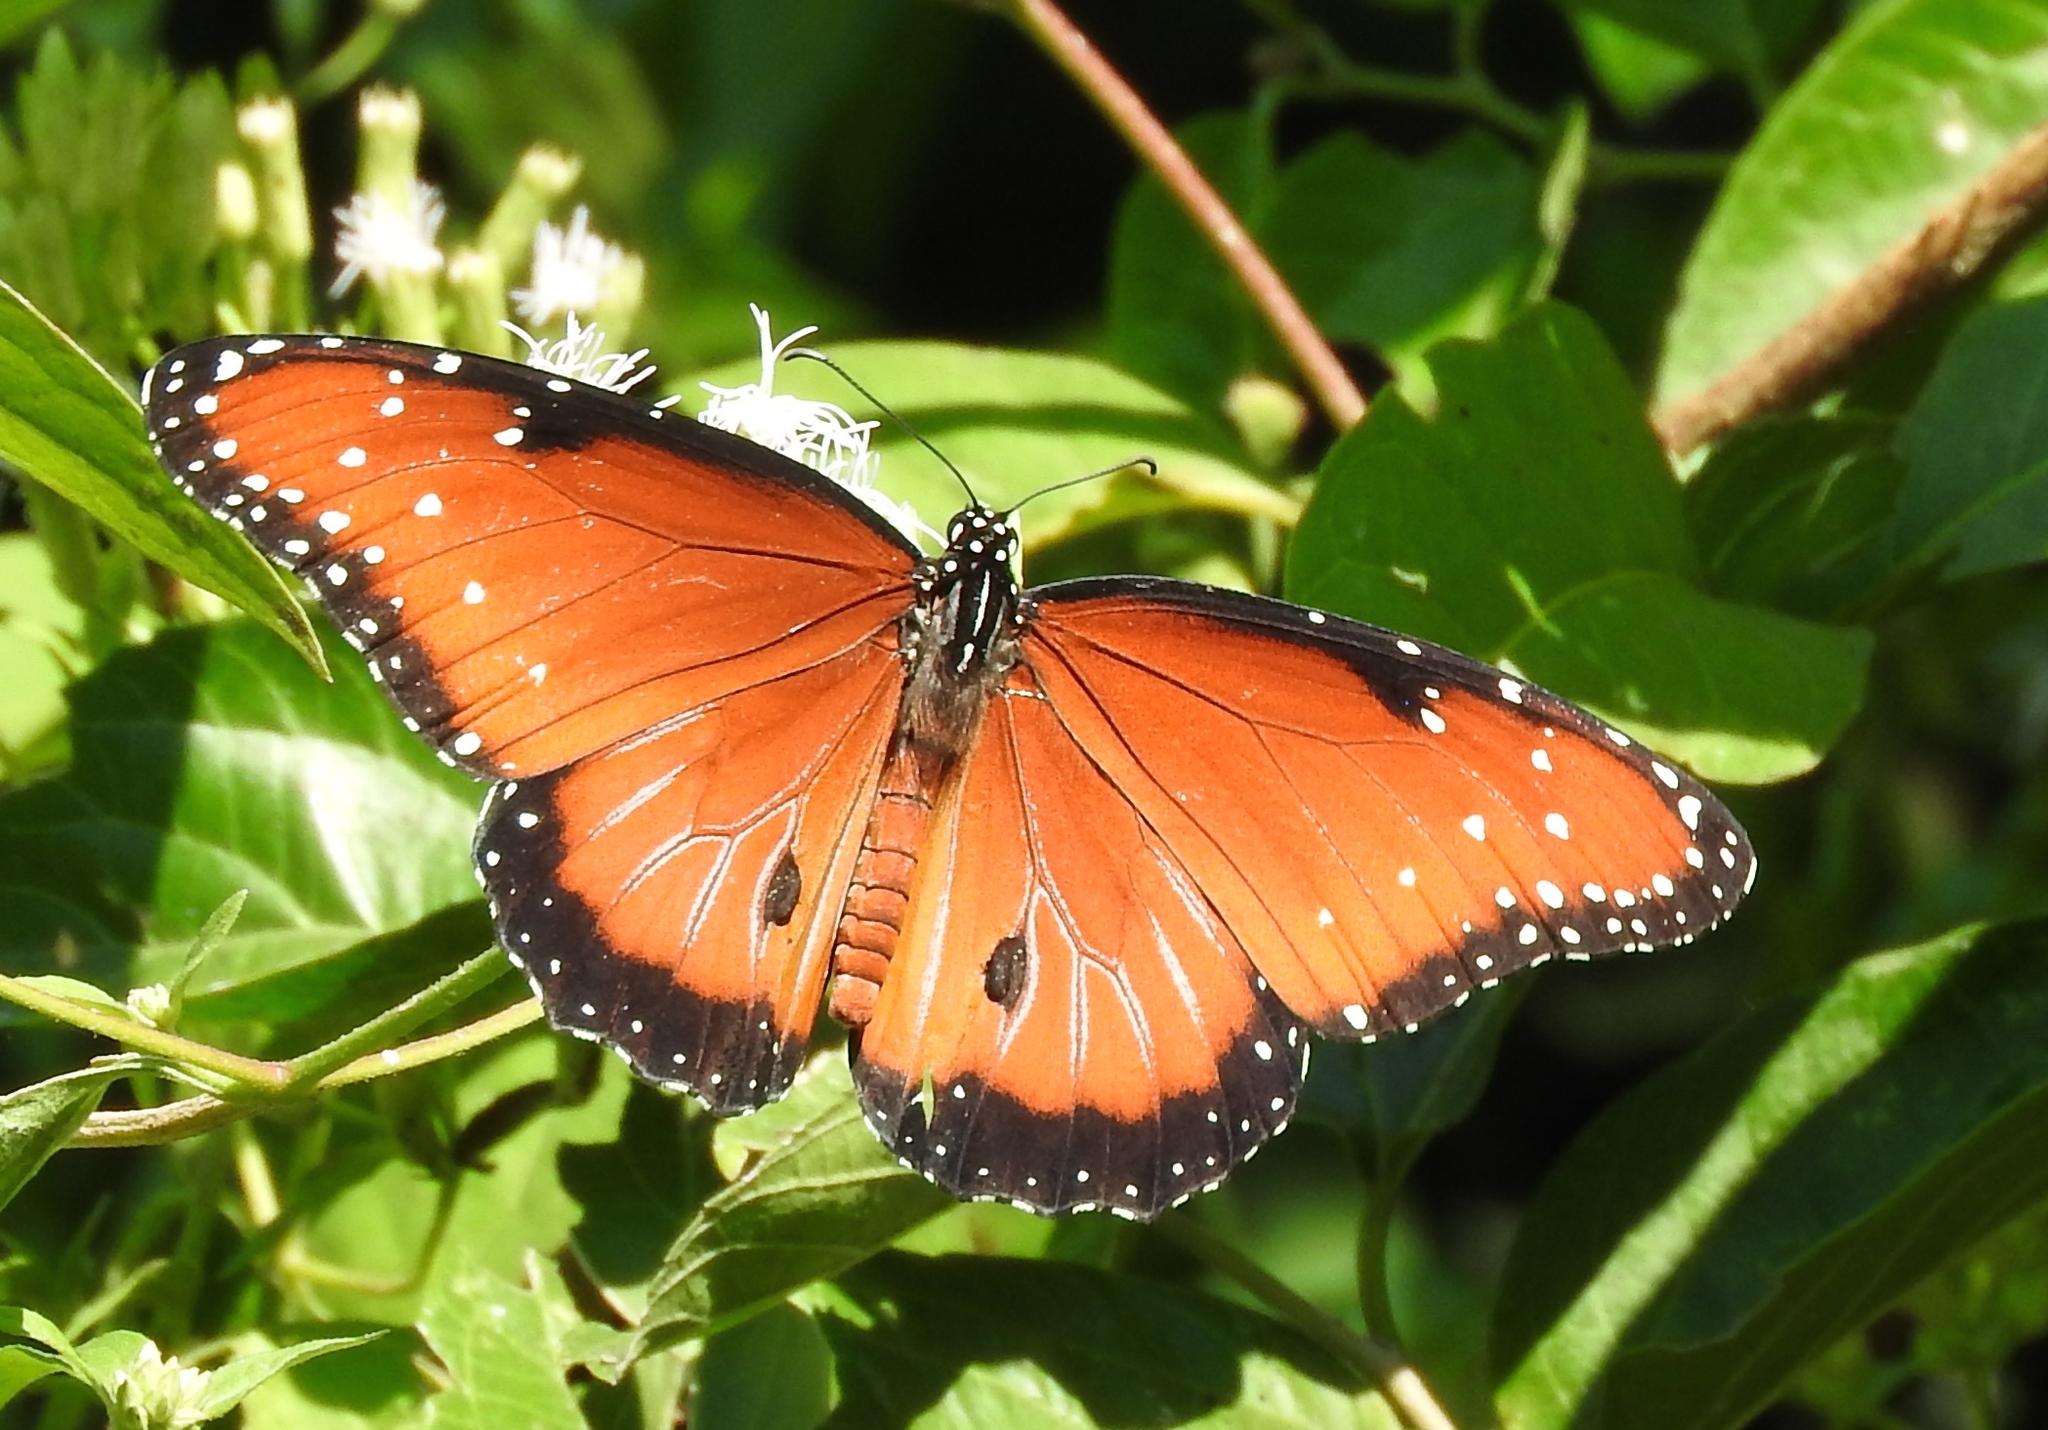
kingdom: Animalia
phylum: Arthropoda
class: Insecta
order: Lepidoptera
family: Nymphalidae
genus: Danaus
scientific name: Danaus gilippus
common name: Queen
